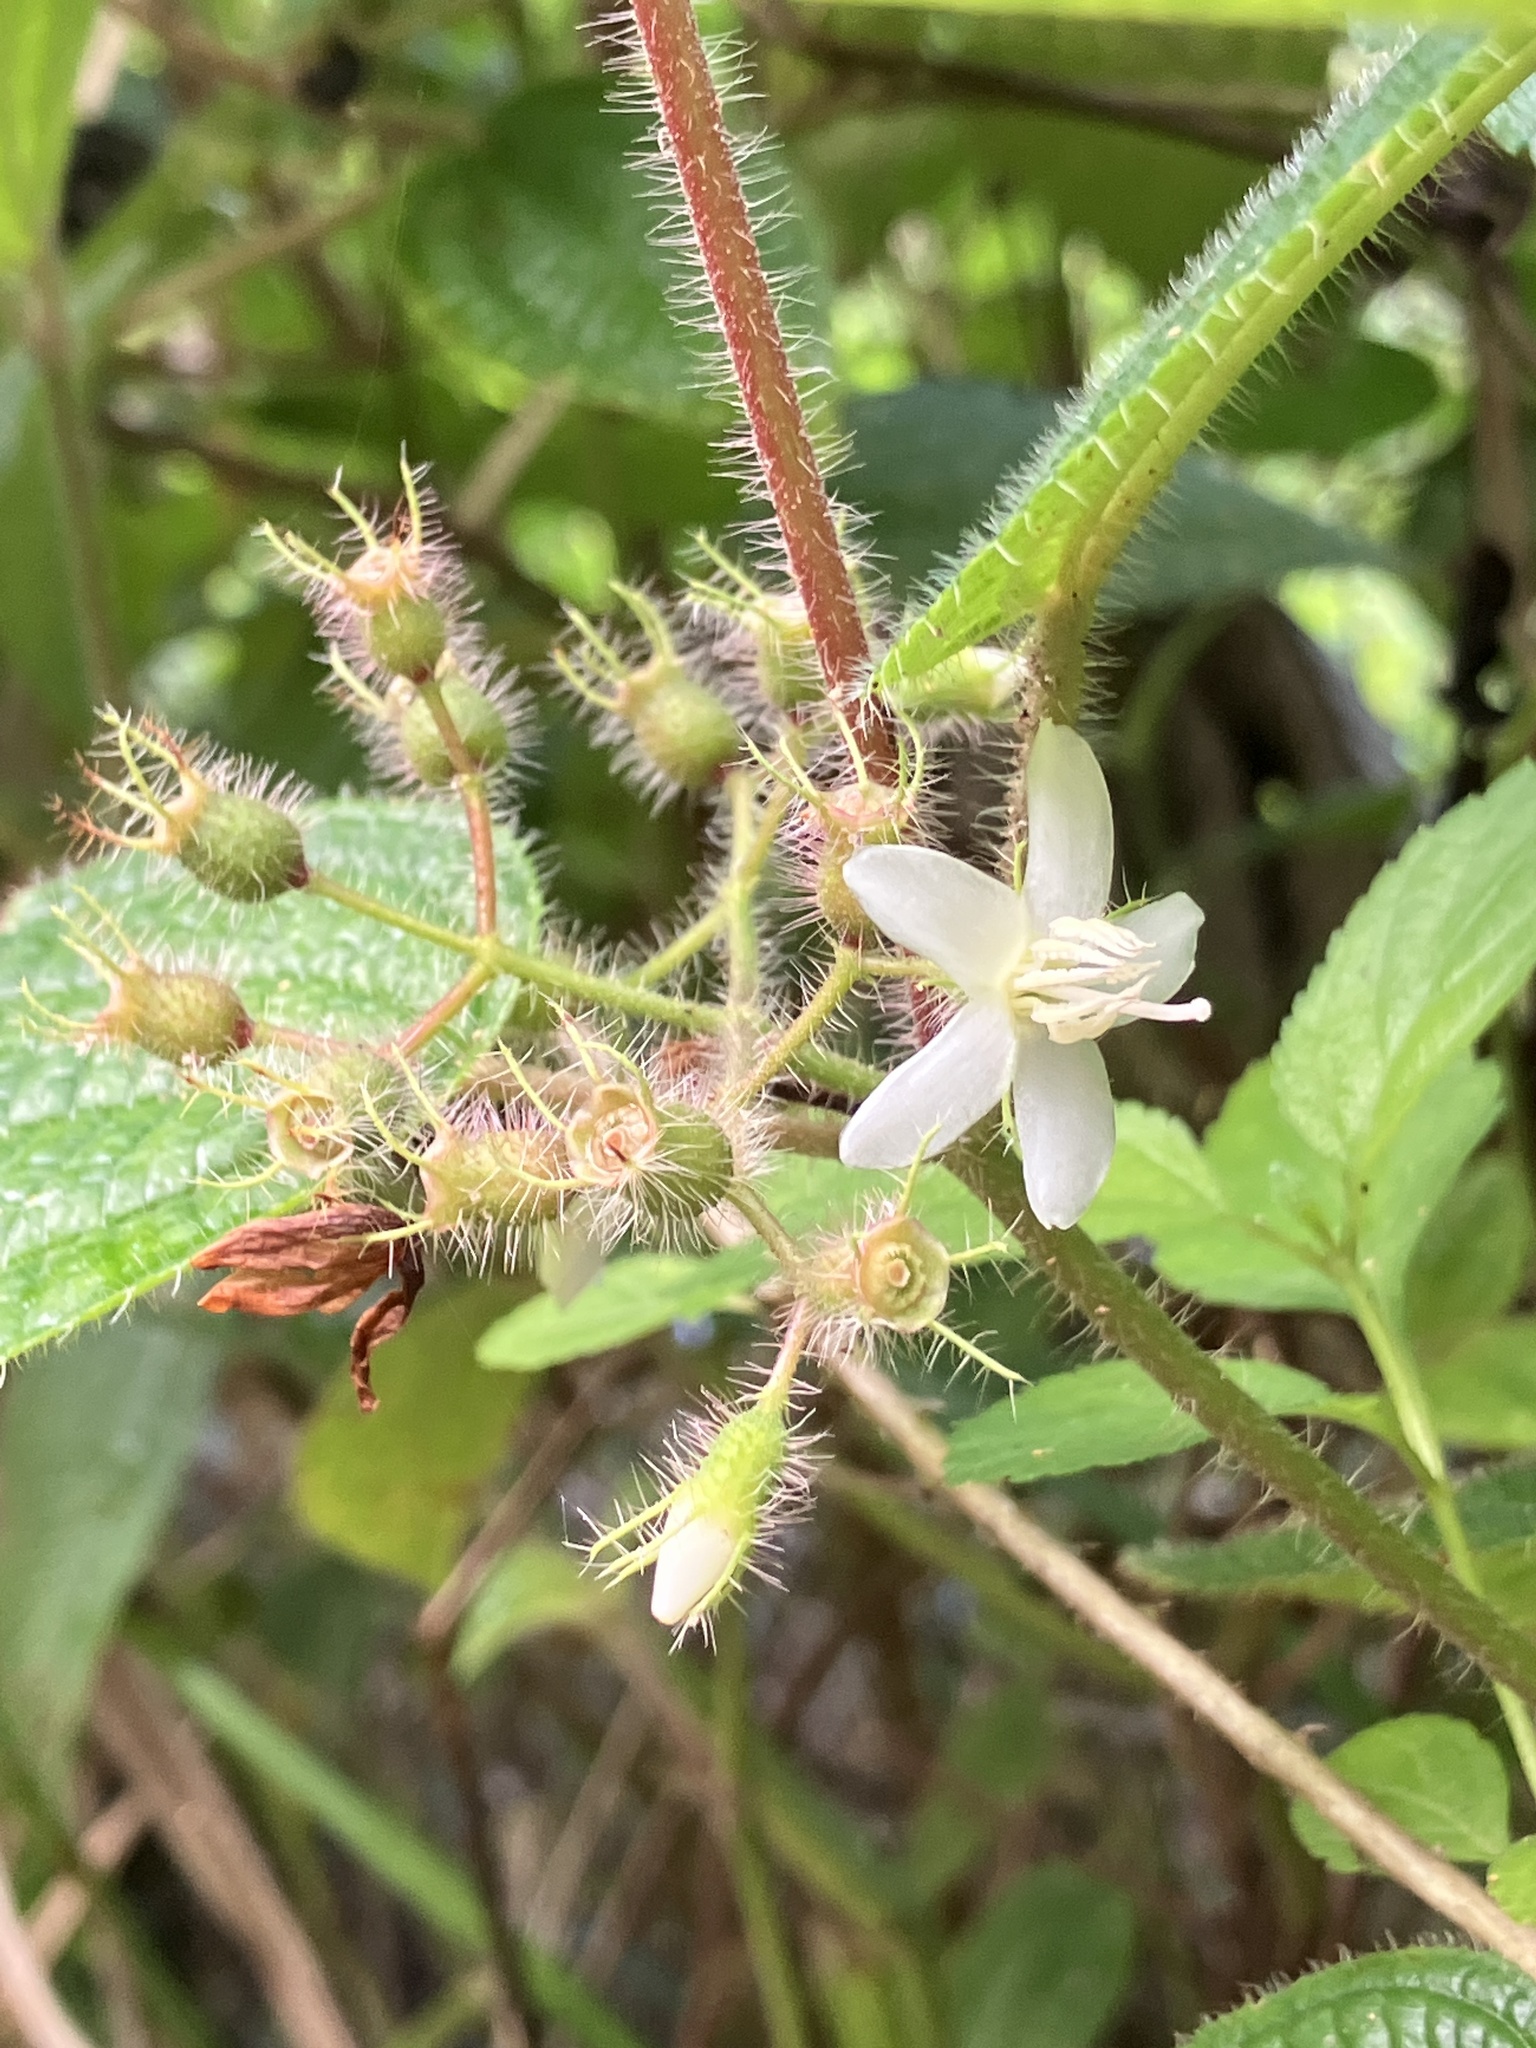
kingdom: Plantae
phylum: Tracheophyta
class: Magnoliopsida
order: Myrtales
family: Melastomataceae
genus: Miconia
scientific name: Miconia crenata
